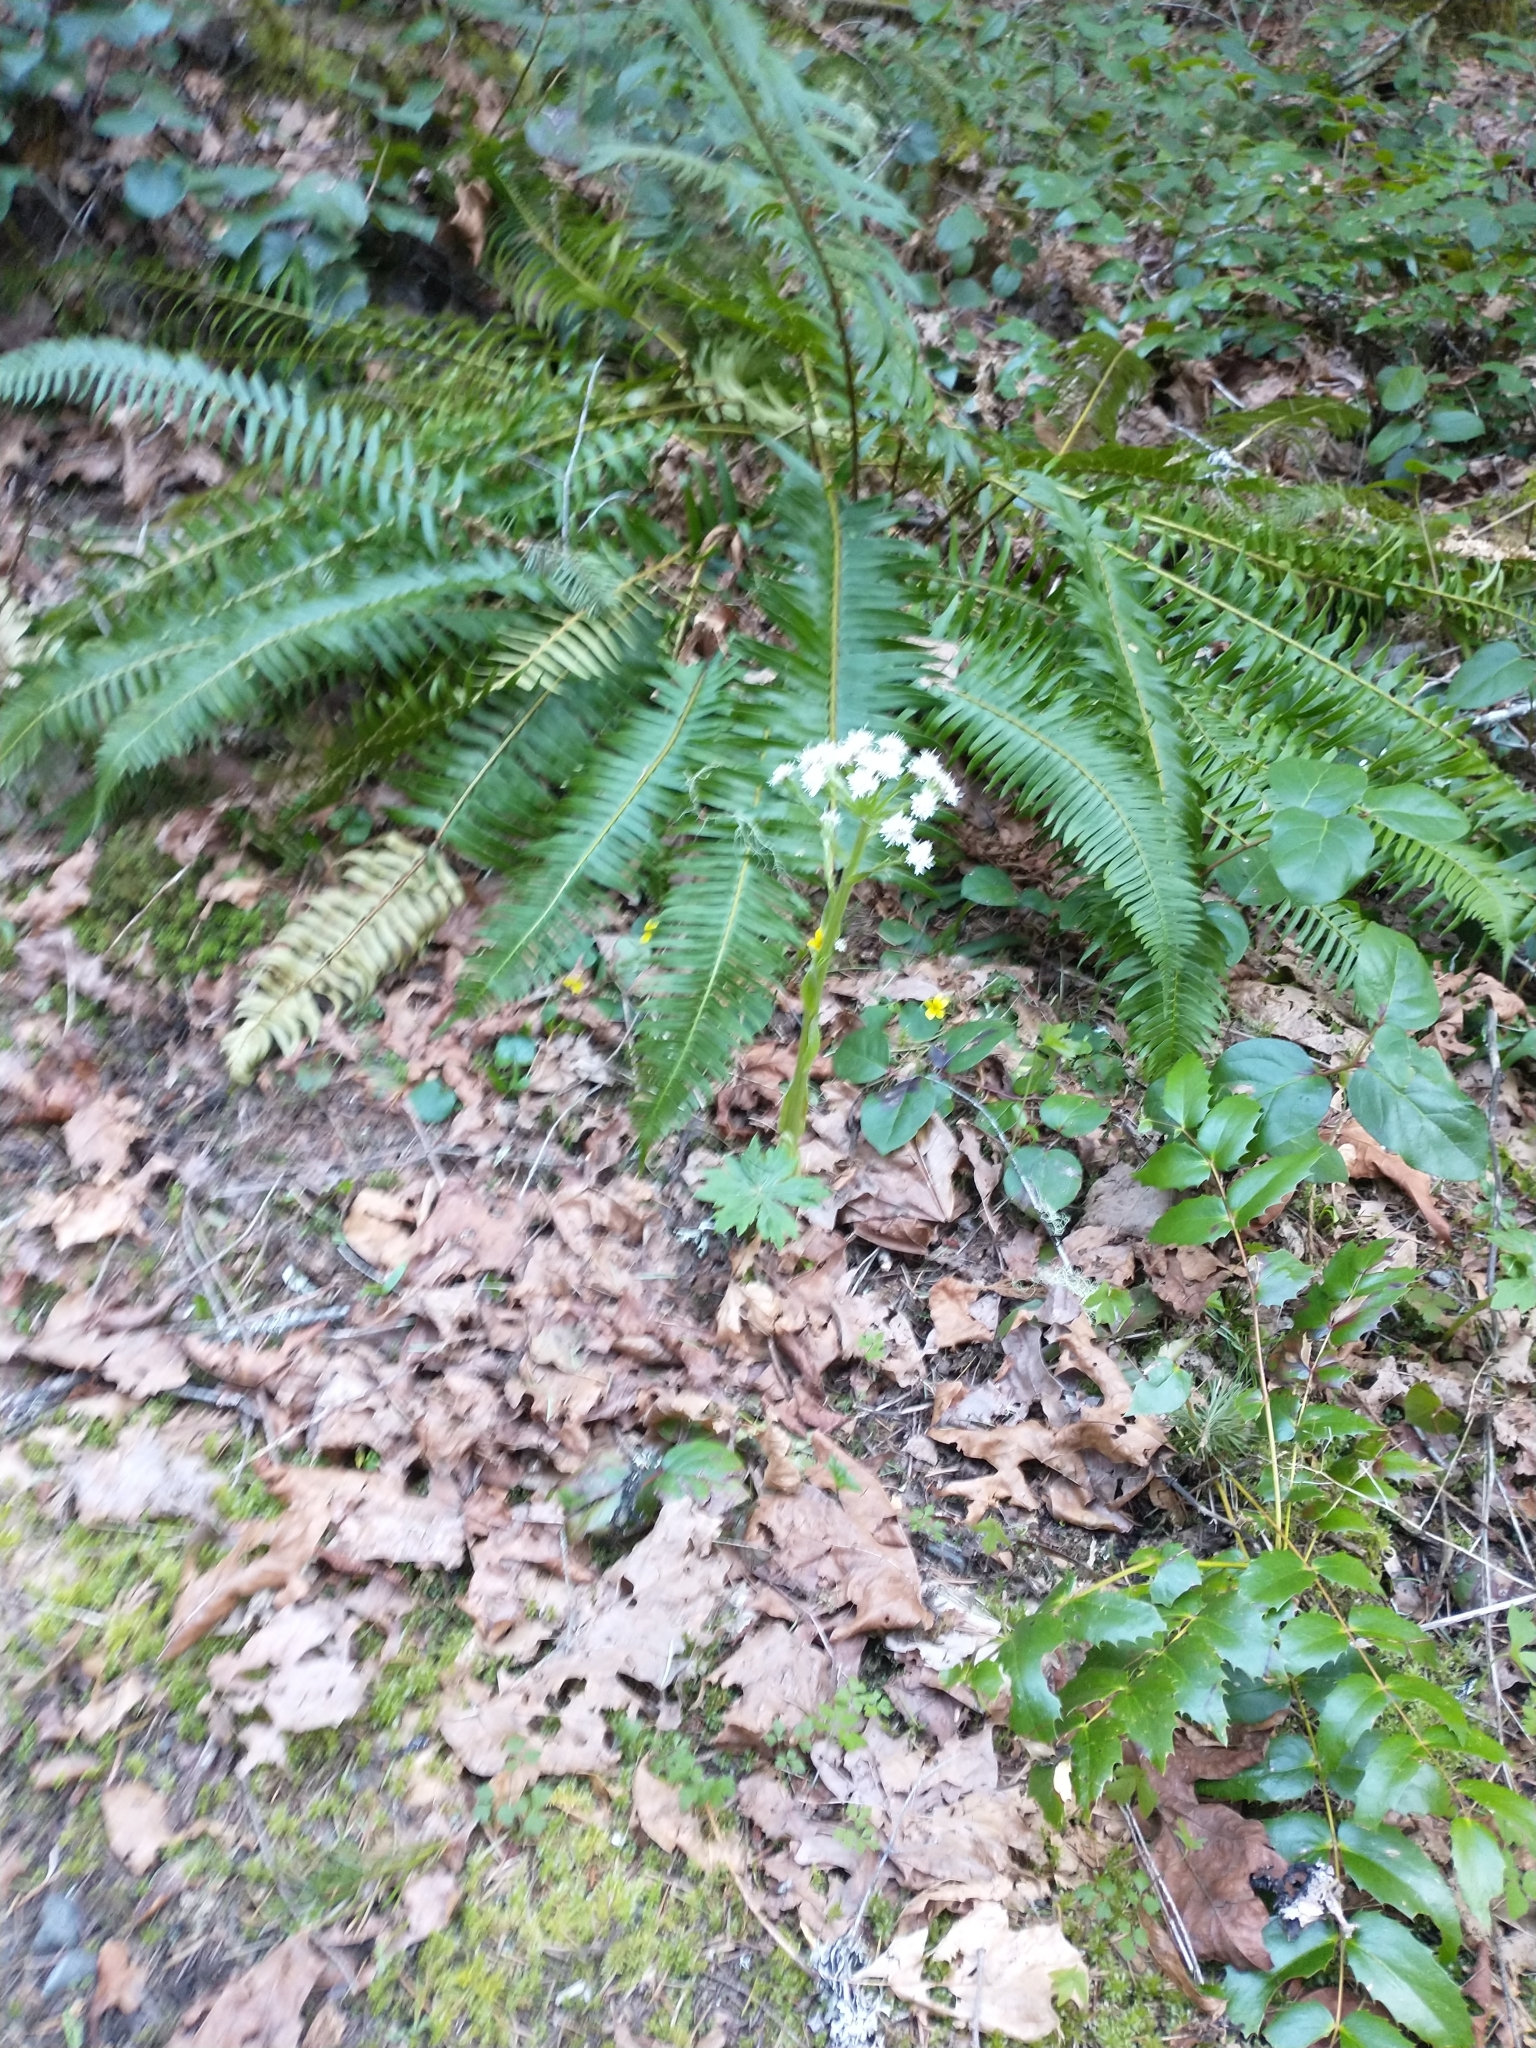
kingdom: Plantae
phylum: Tracheophyta
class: Magnoliopsida
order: Asterales
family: Asteraceae
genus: Petasites
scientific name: Petasites frigidus
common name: Arctic butterbur
